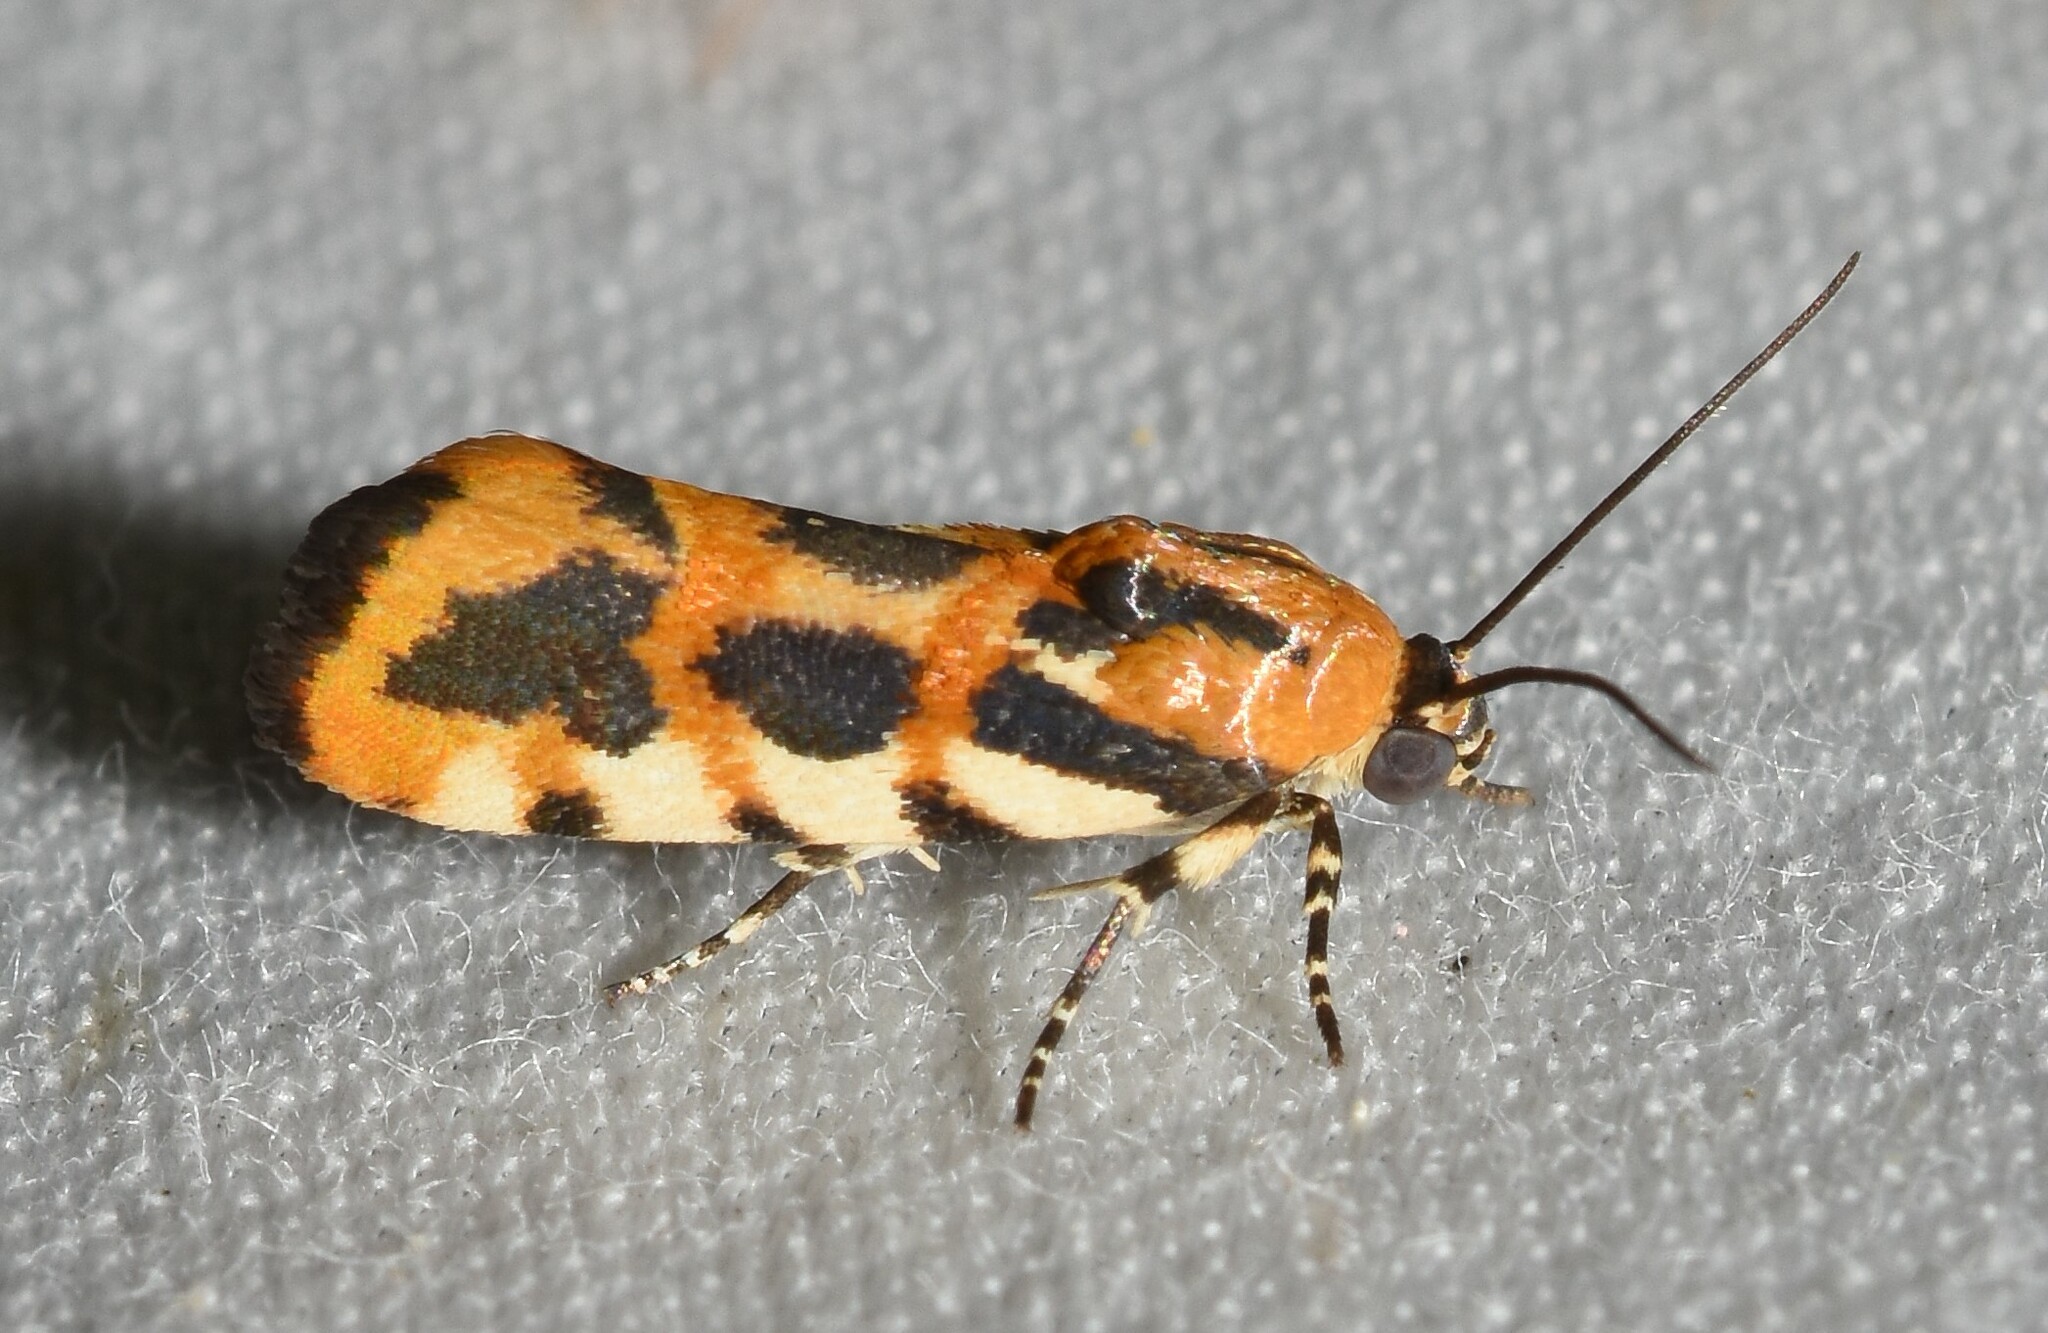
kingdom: Animalia
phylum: Arthropoda
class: Insecta
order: Lepidoptera
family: Noctuidae
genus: Acontia
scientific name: Acontia leo
